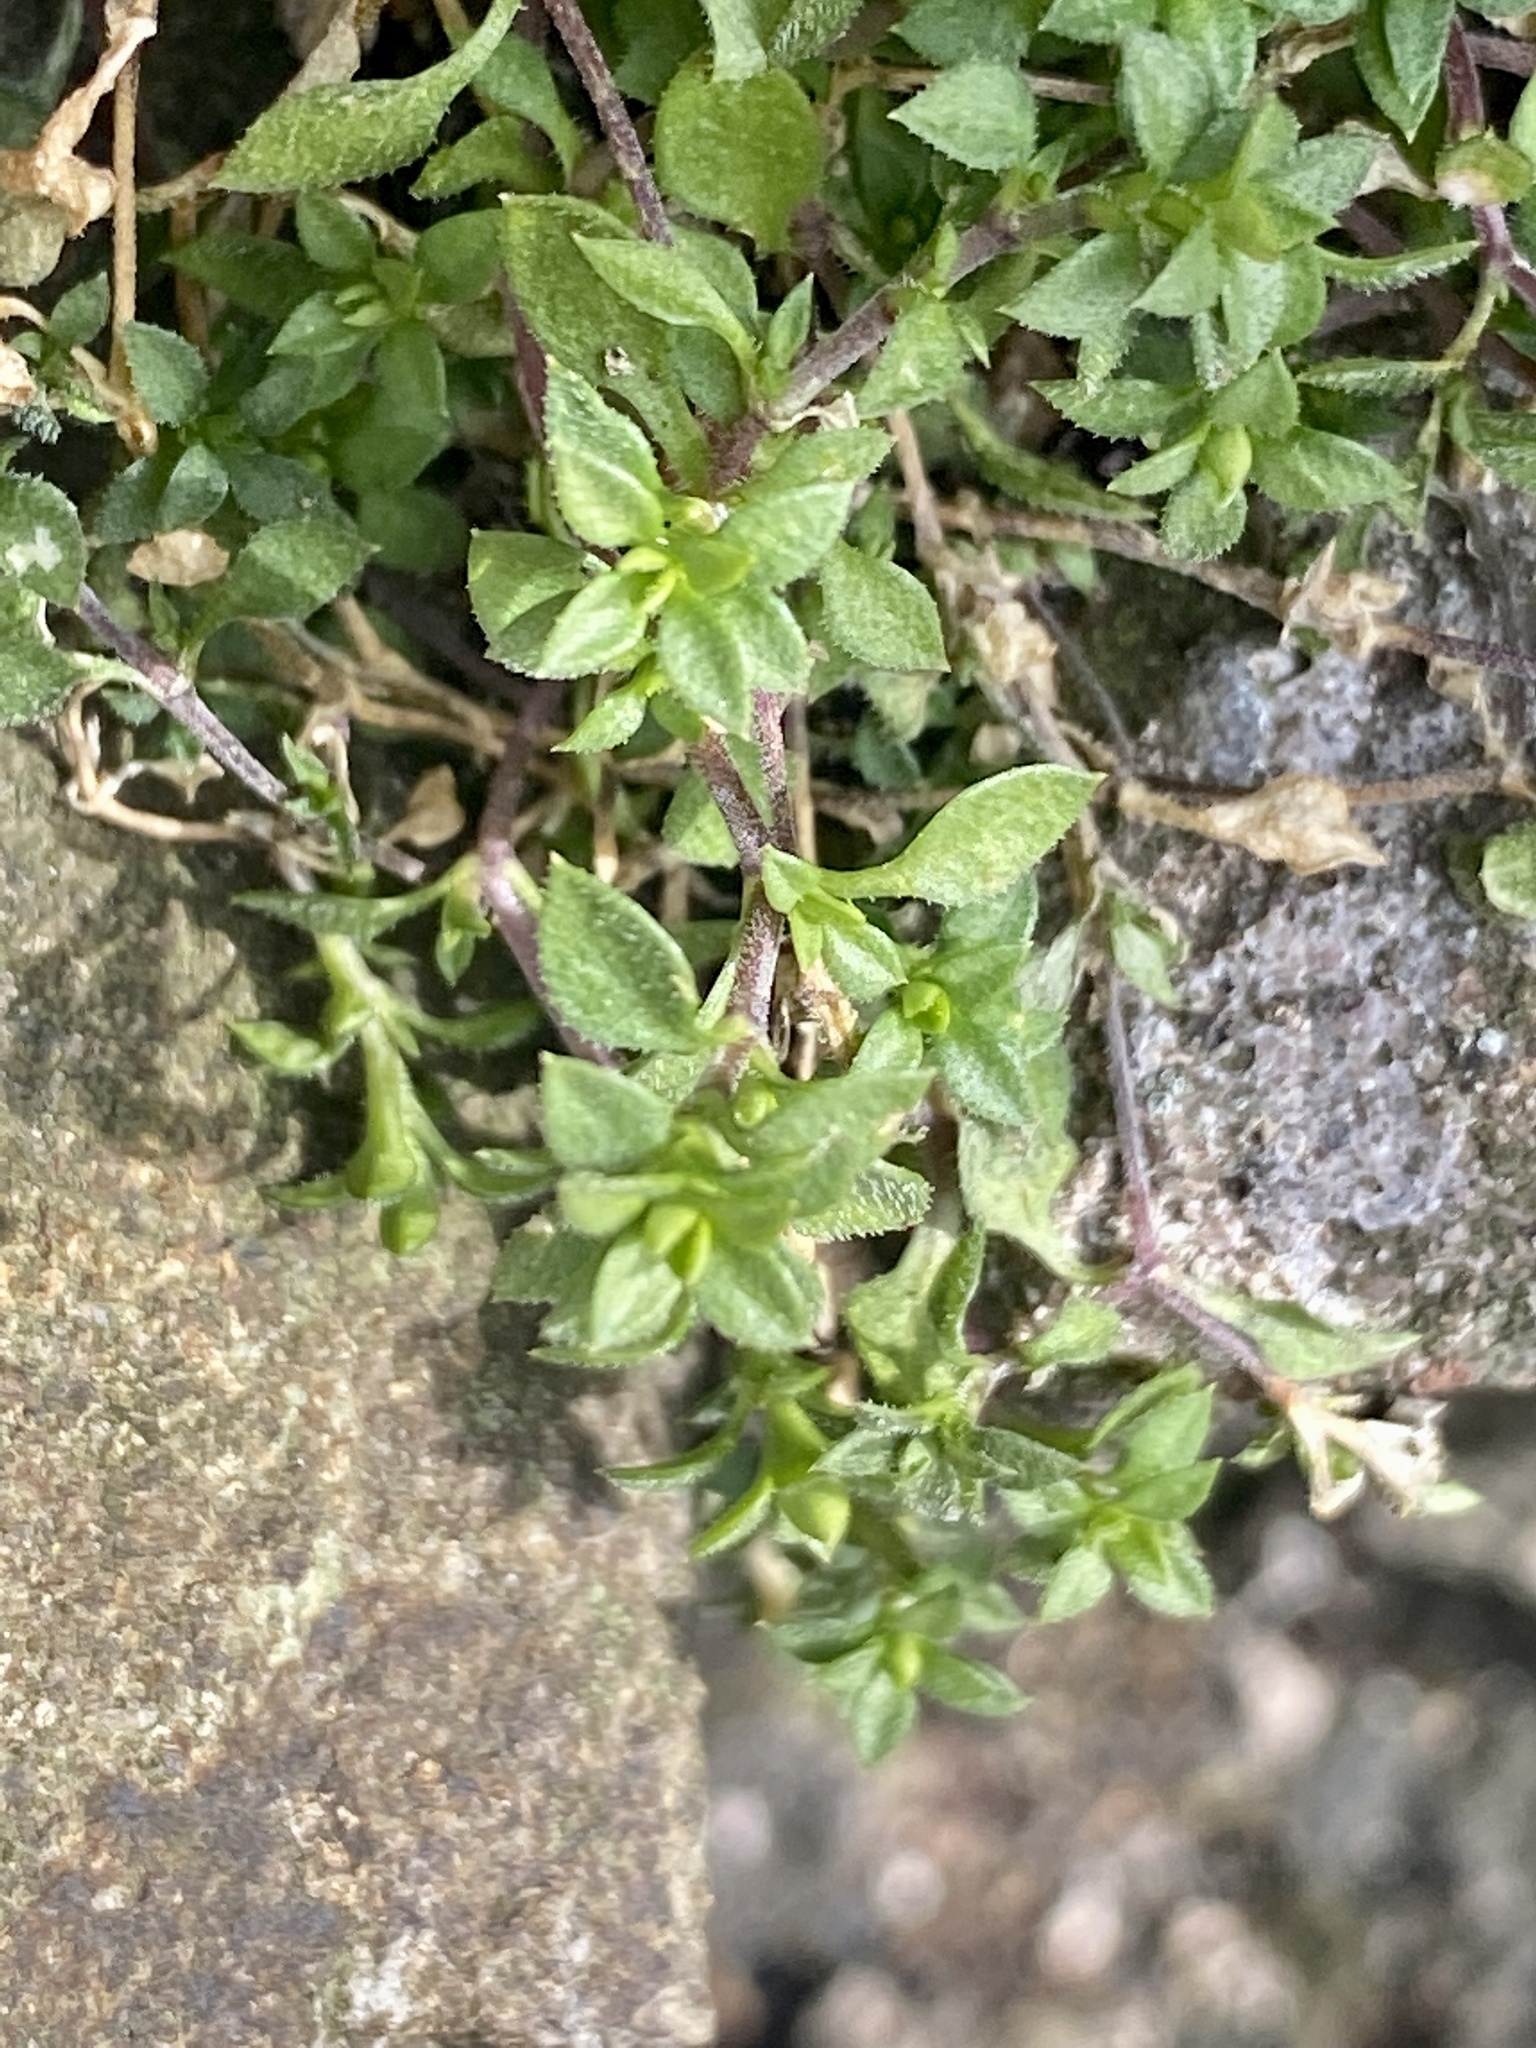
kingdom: Plantae
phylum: Tracheophyta
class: Magnoliopsida
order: Caryophyllales
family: Caryophyllaceae
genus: Stellaria
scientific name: Stellaria media
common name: Common chickweed
